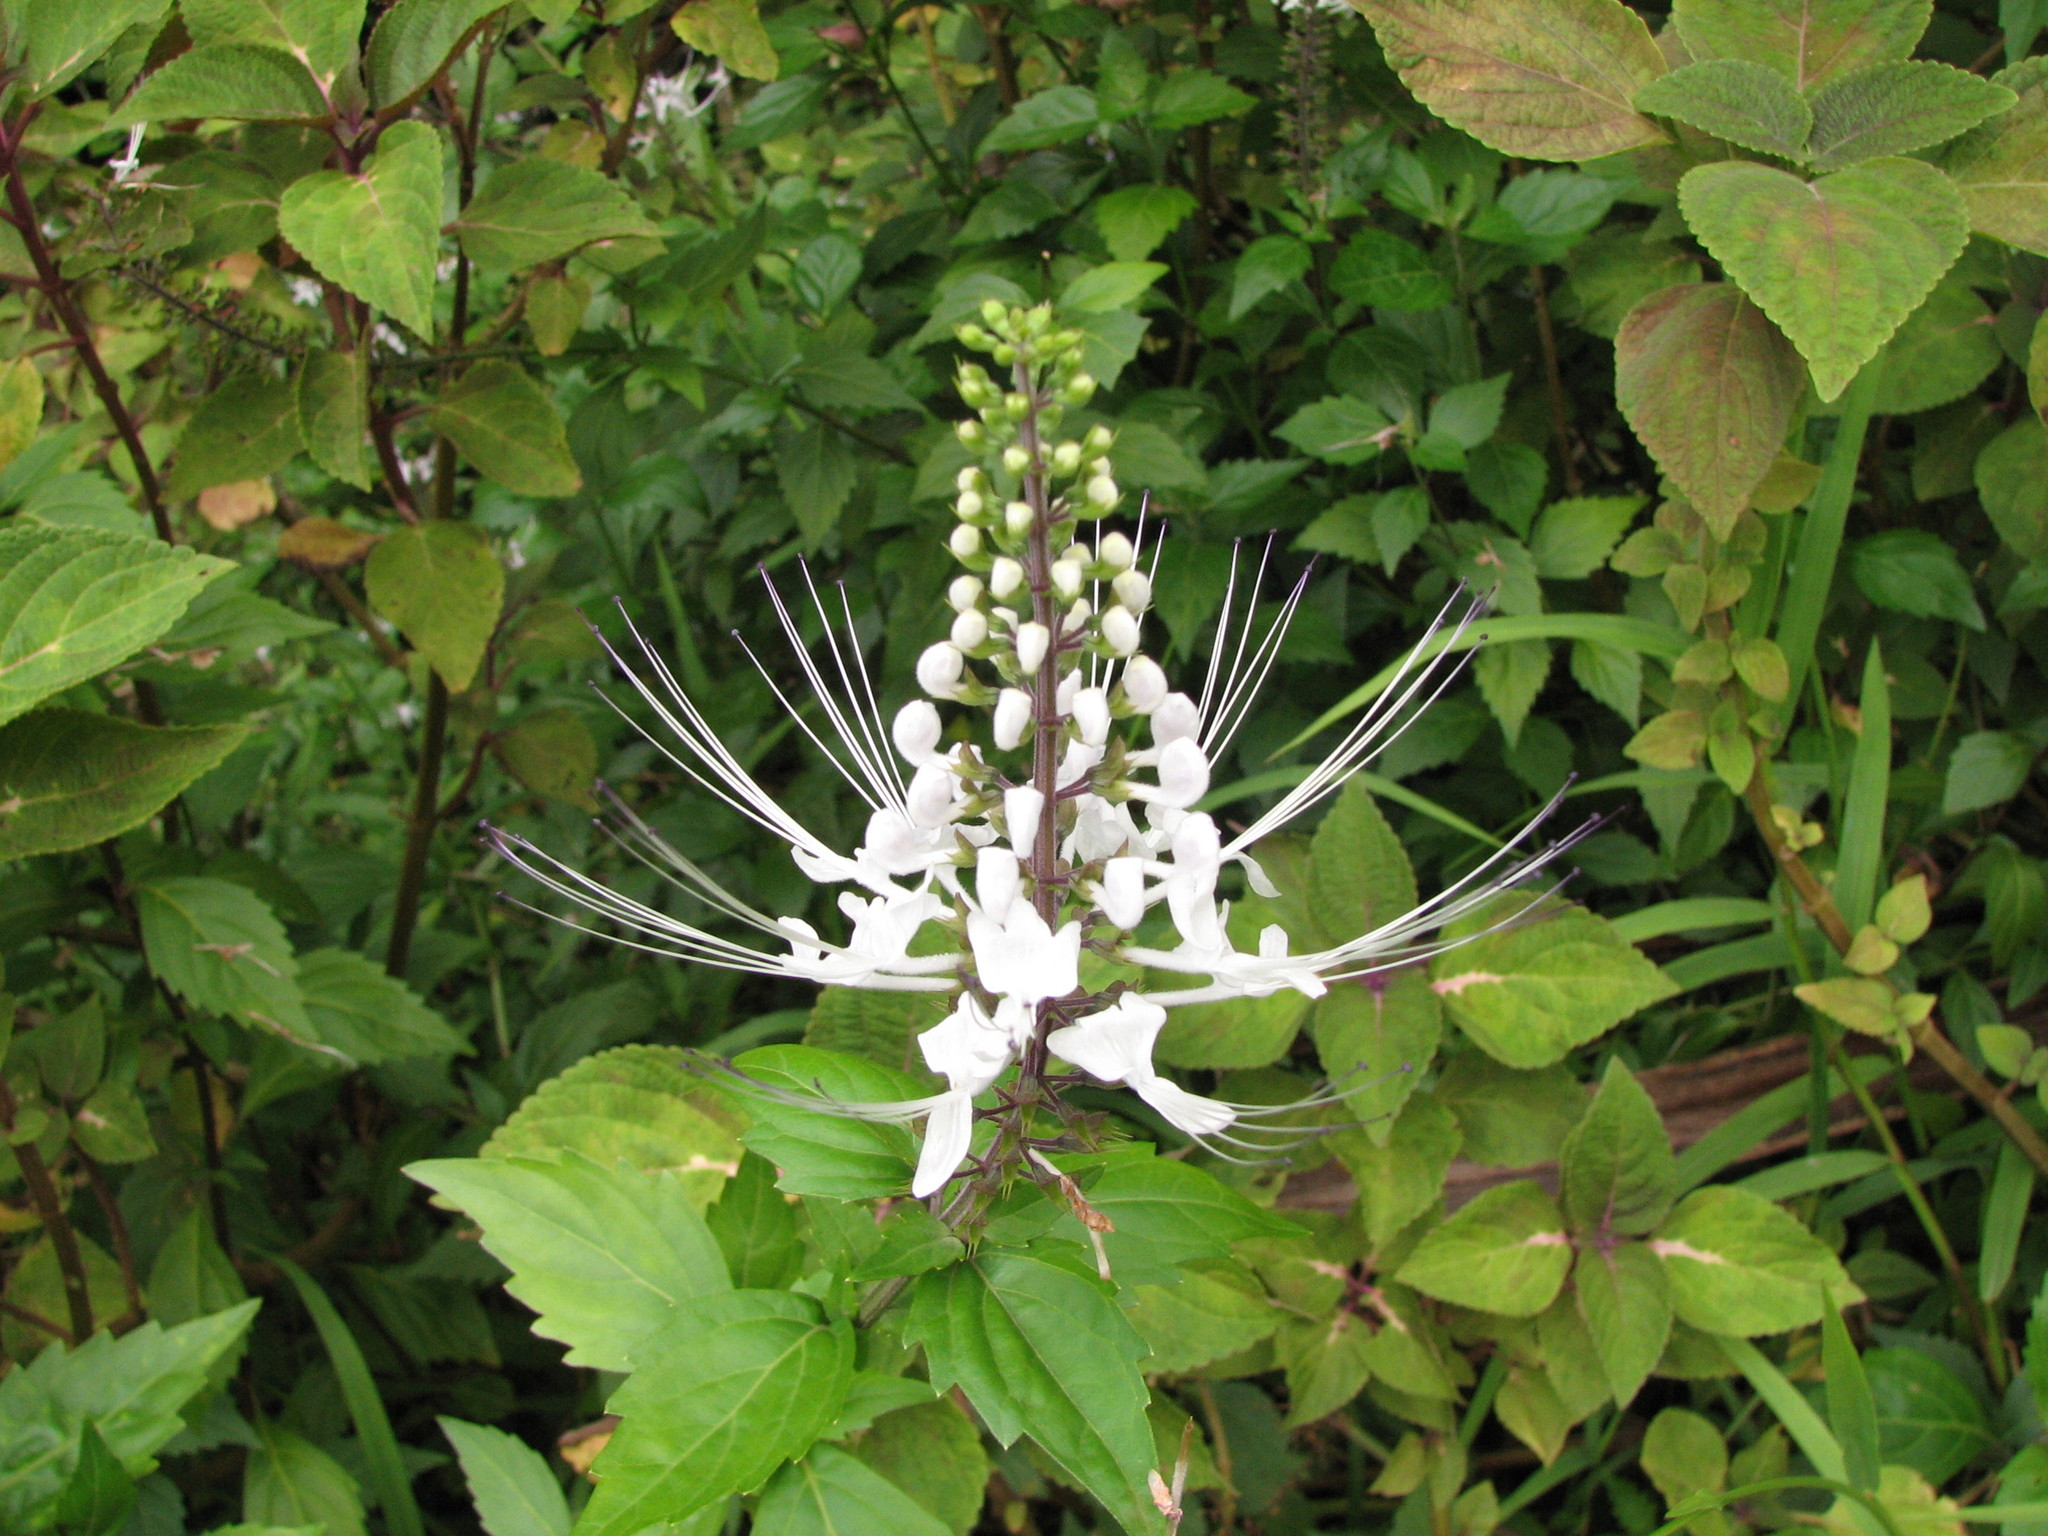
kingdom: Plantae
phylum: Tracheophyta
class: Magnoliopsida
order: Lamiales
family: Lamiaceae
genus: Orthosiphon
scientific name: Orthosiphon aristatus
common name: Whiskerplant
